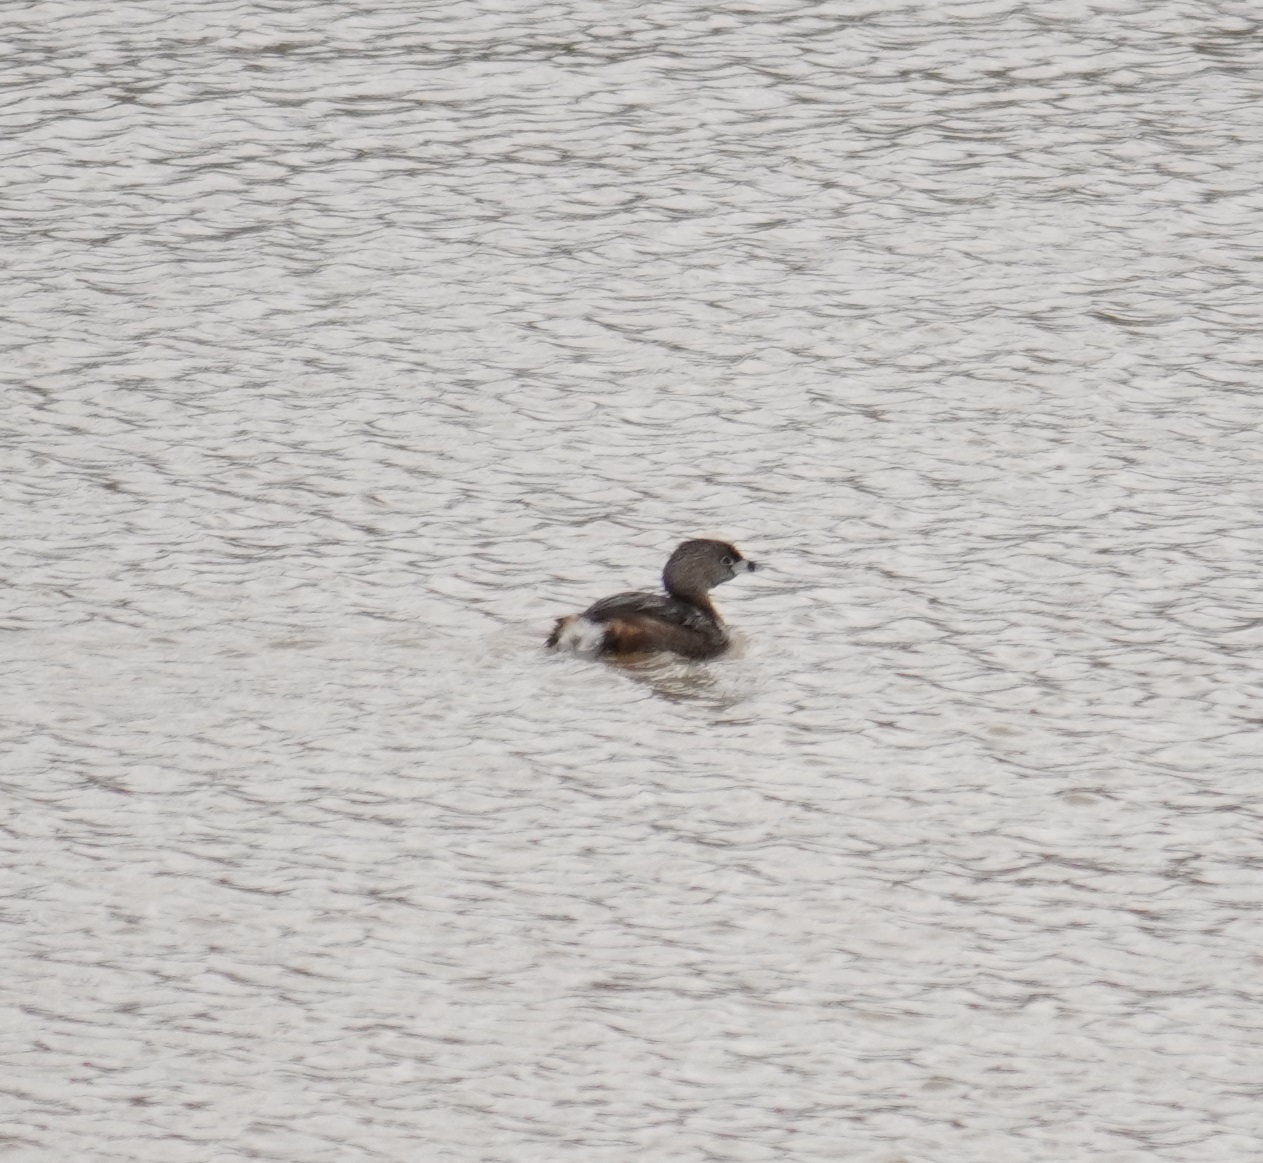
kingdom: Animalia
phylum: Chordata
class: Aves
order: Podicipediformes
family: Podicipedidae
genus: Podilymbus
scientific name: Podilymbus podiceps
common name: Pied-billed grebe
